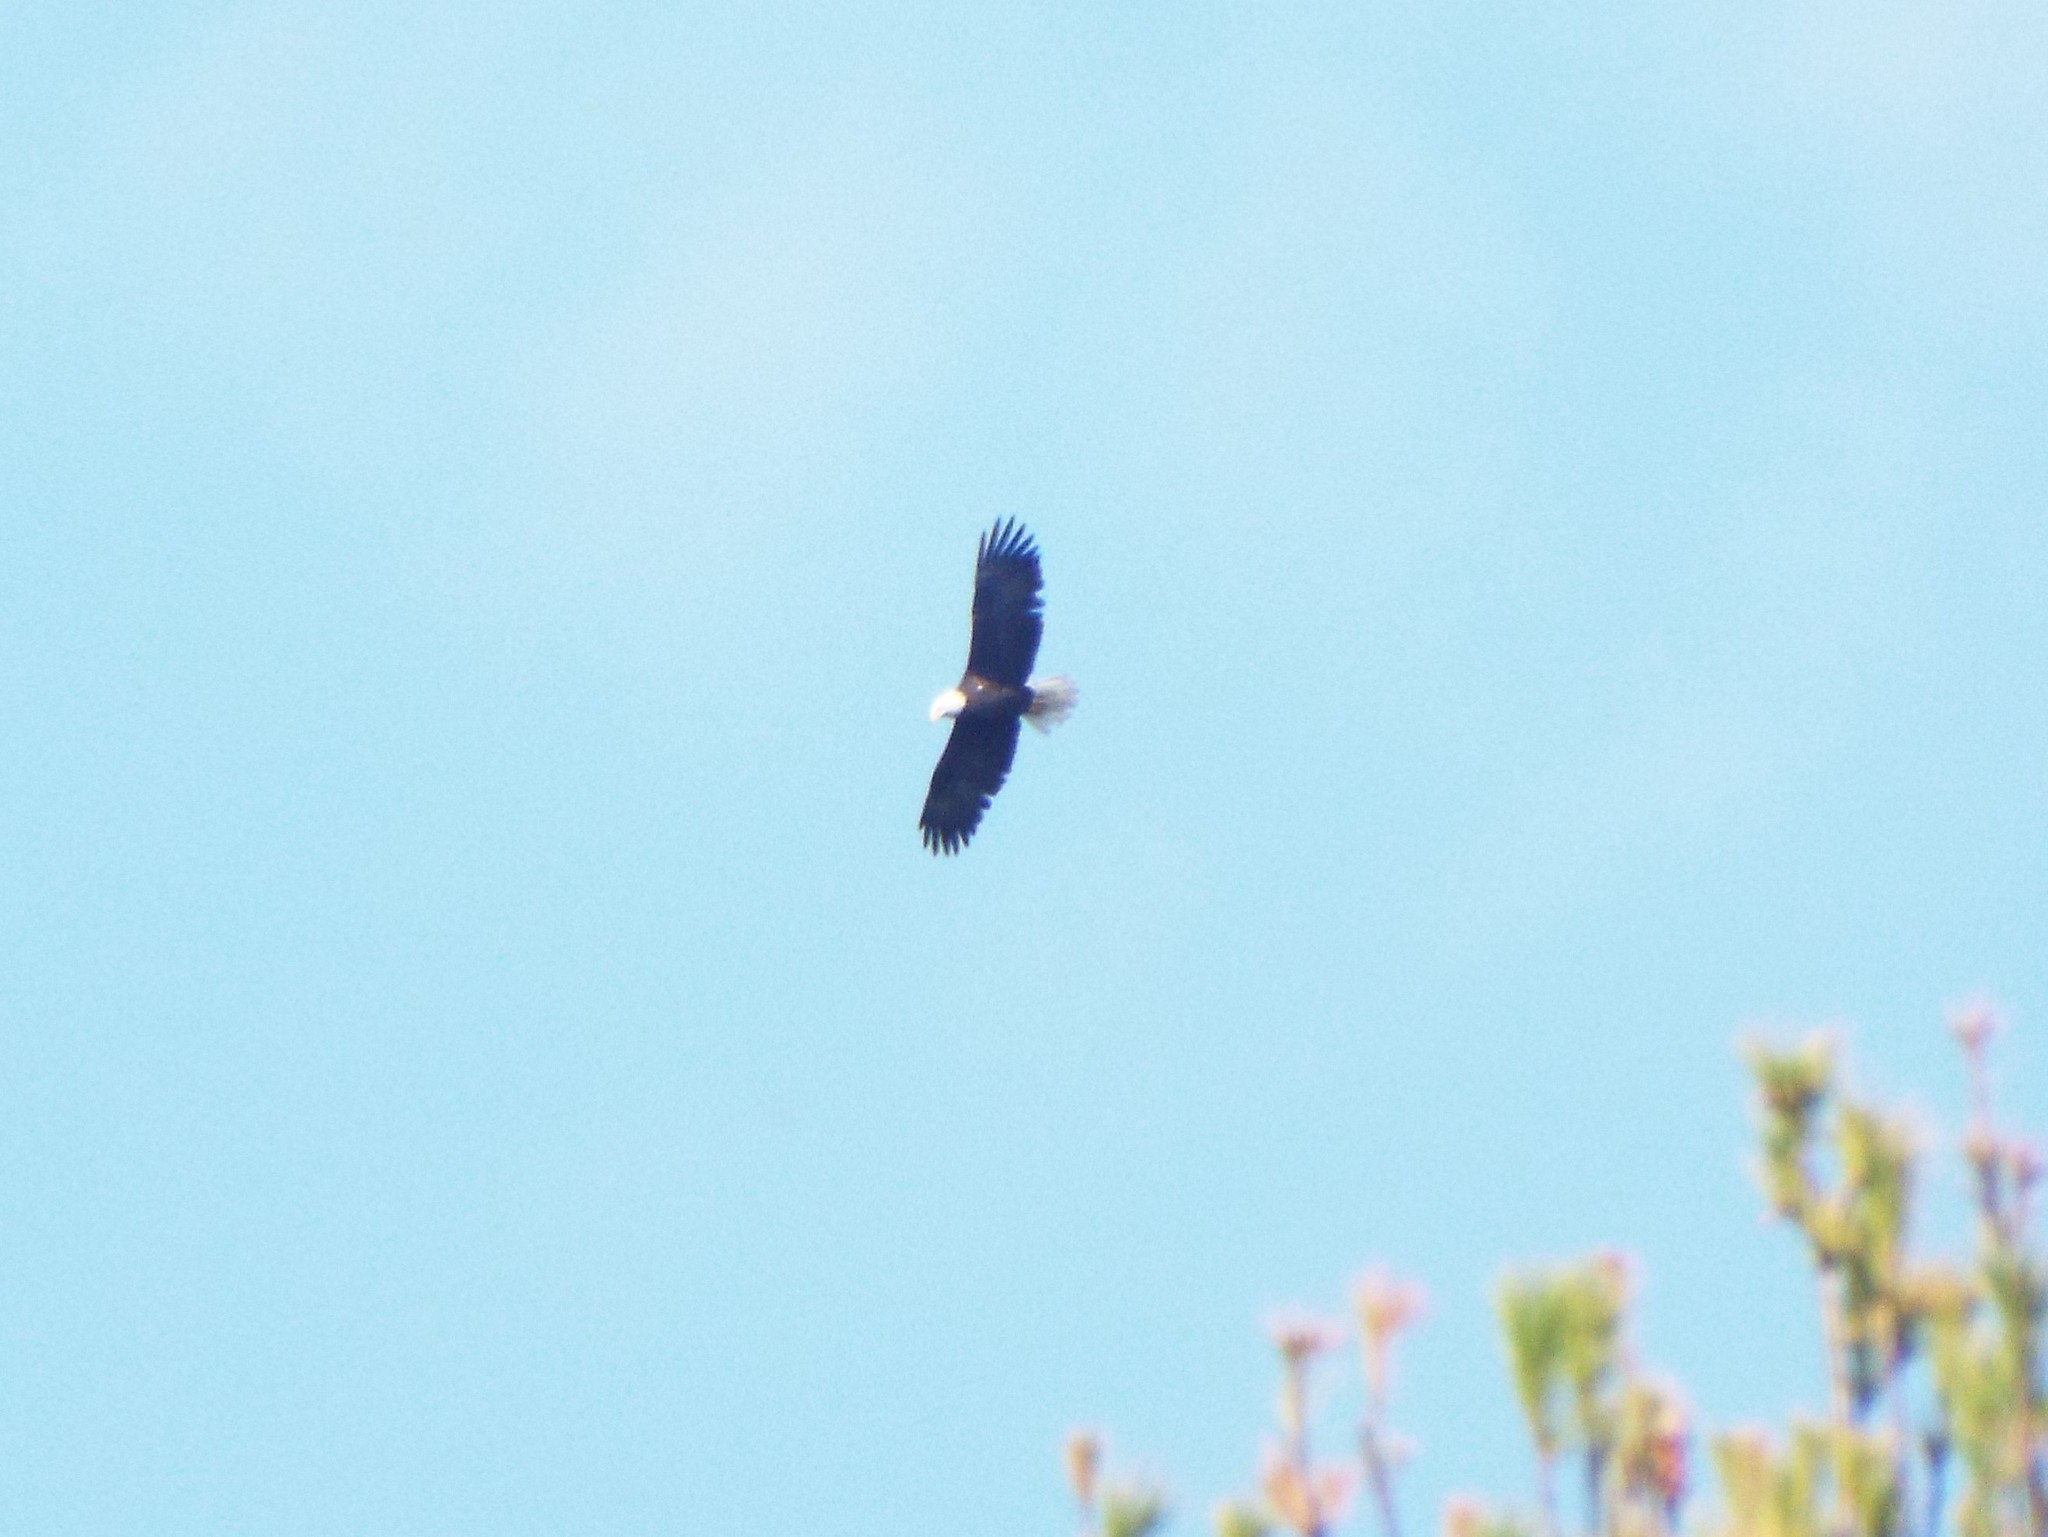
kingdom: Animalia
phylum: Chordata
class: Aves
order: Accipitriformes
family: Accipitridae
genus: Haliaeetus
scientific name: Haliaeetus leucocephalus
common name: Bald eagle
